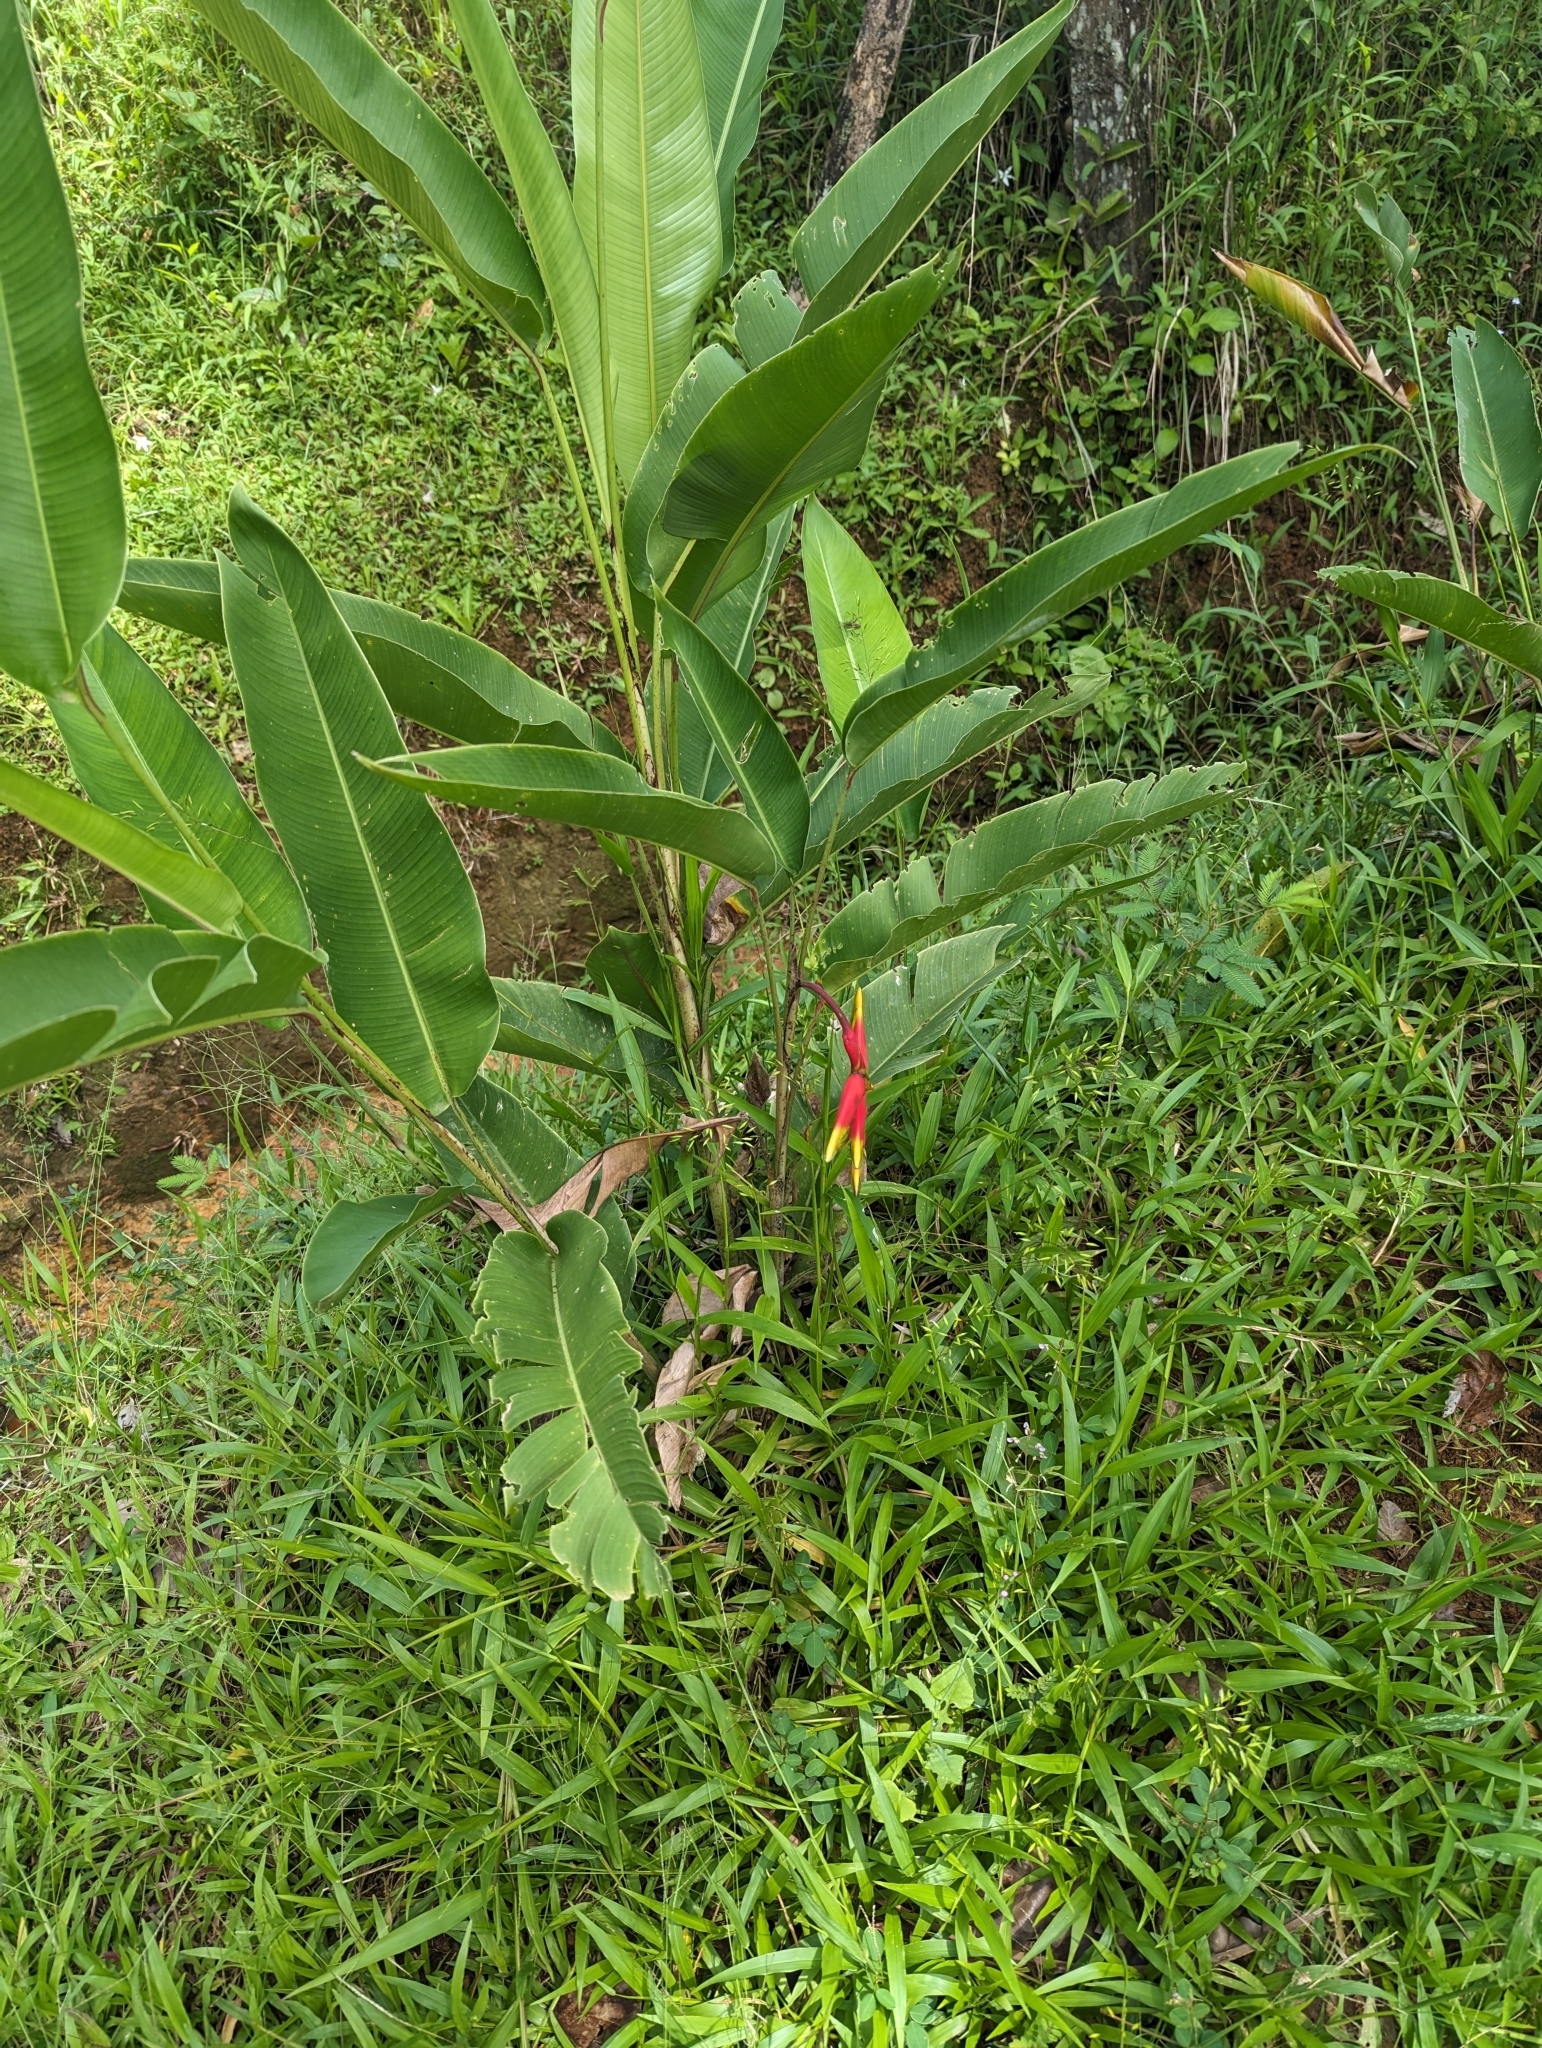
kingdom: Plantae
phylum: Tracheophyta
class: Liliopsida
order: Zingiberales
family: Heliconiaceae
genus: Heliconia
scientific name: Heliconia rostrata
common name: False bird of paradise
